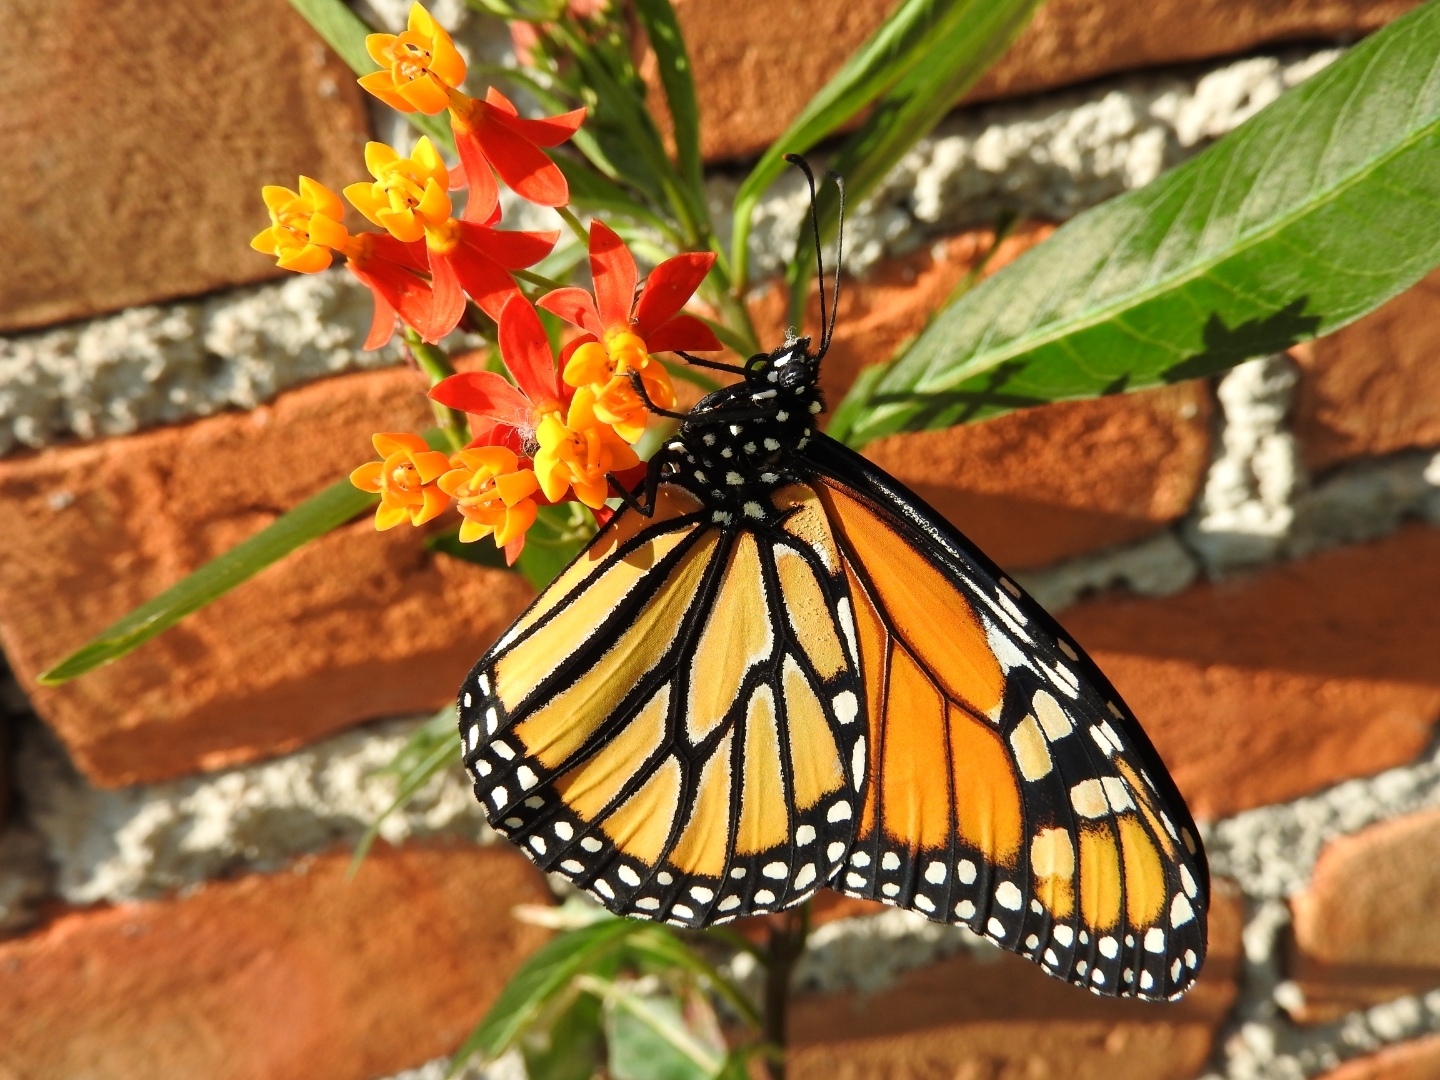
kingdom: Animalia
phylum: Arthropoda
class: Insecta
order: Lepidoptera
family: Nymphalidae
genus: Danaus
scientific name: Danaus plexippus
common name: Monarch
